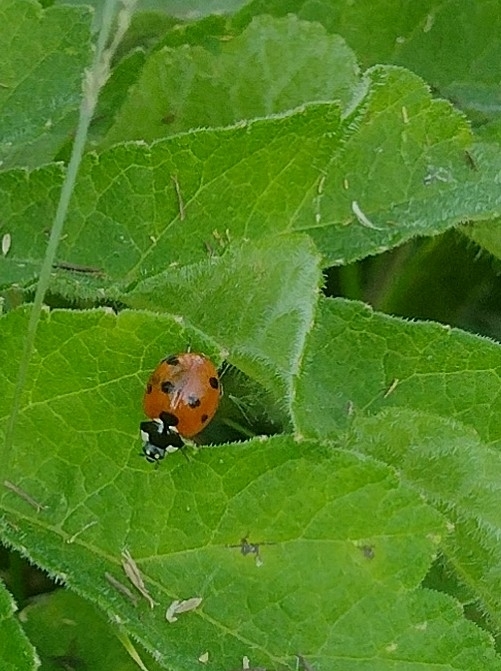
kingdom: Animalia
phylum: Arthropoda
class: Insecta
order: Coleoptera
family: Coccinellidae
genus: Coccinella
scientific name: Coccinella septempunctata
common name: Sevenspotted lady beetle
